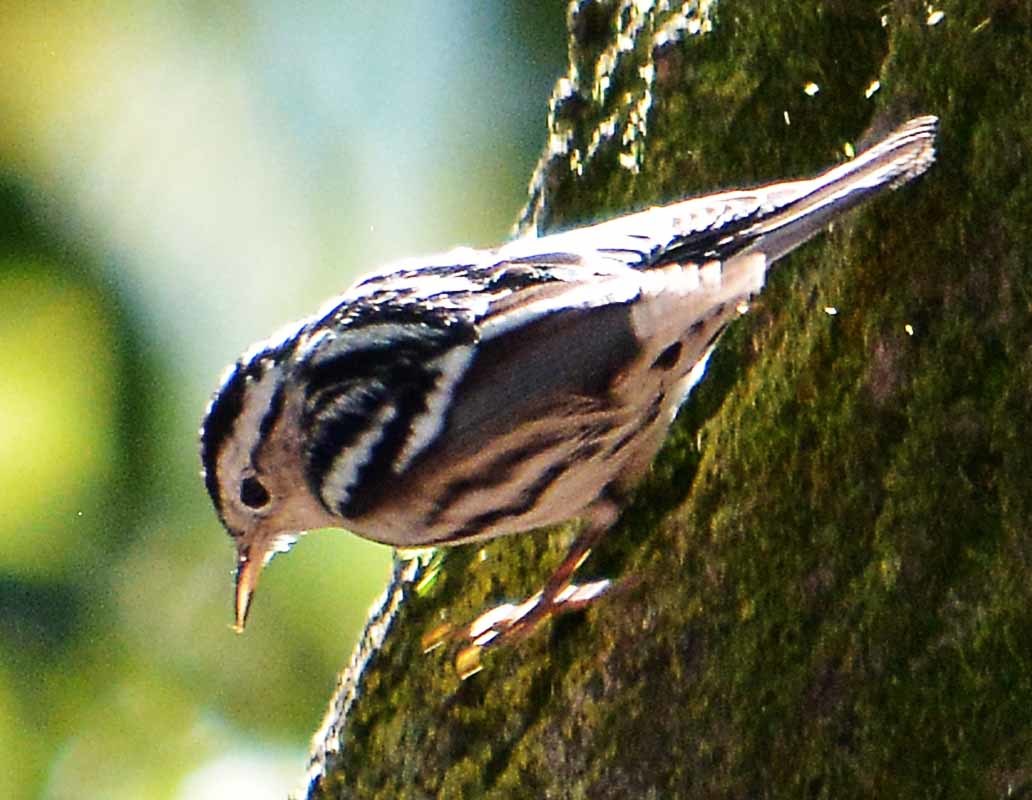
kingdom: Animalia
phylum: Chordata
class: Aves
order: Passeriformes
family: Parulidae
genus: Mniotilta
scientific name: Mniotilta varia
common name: Black-and-white warbler
